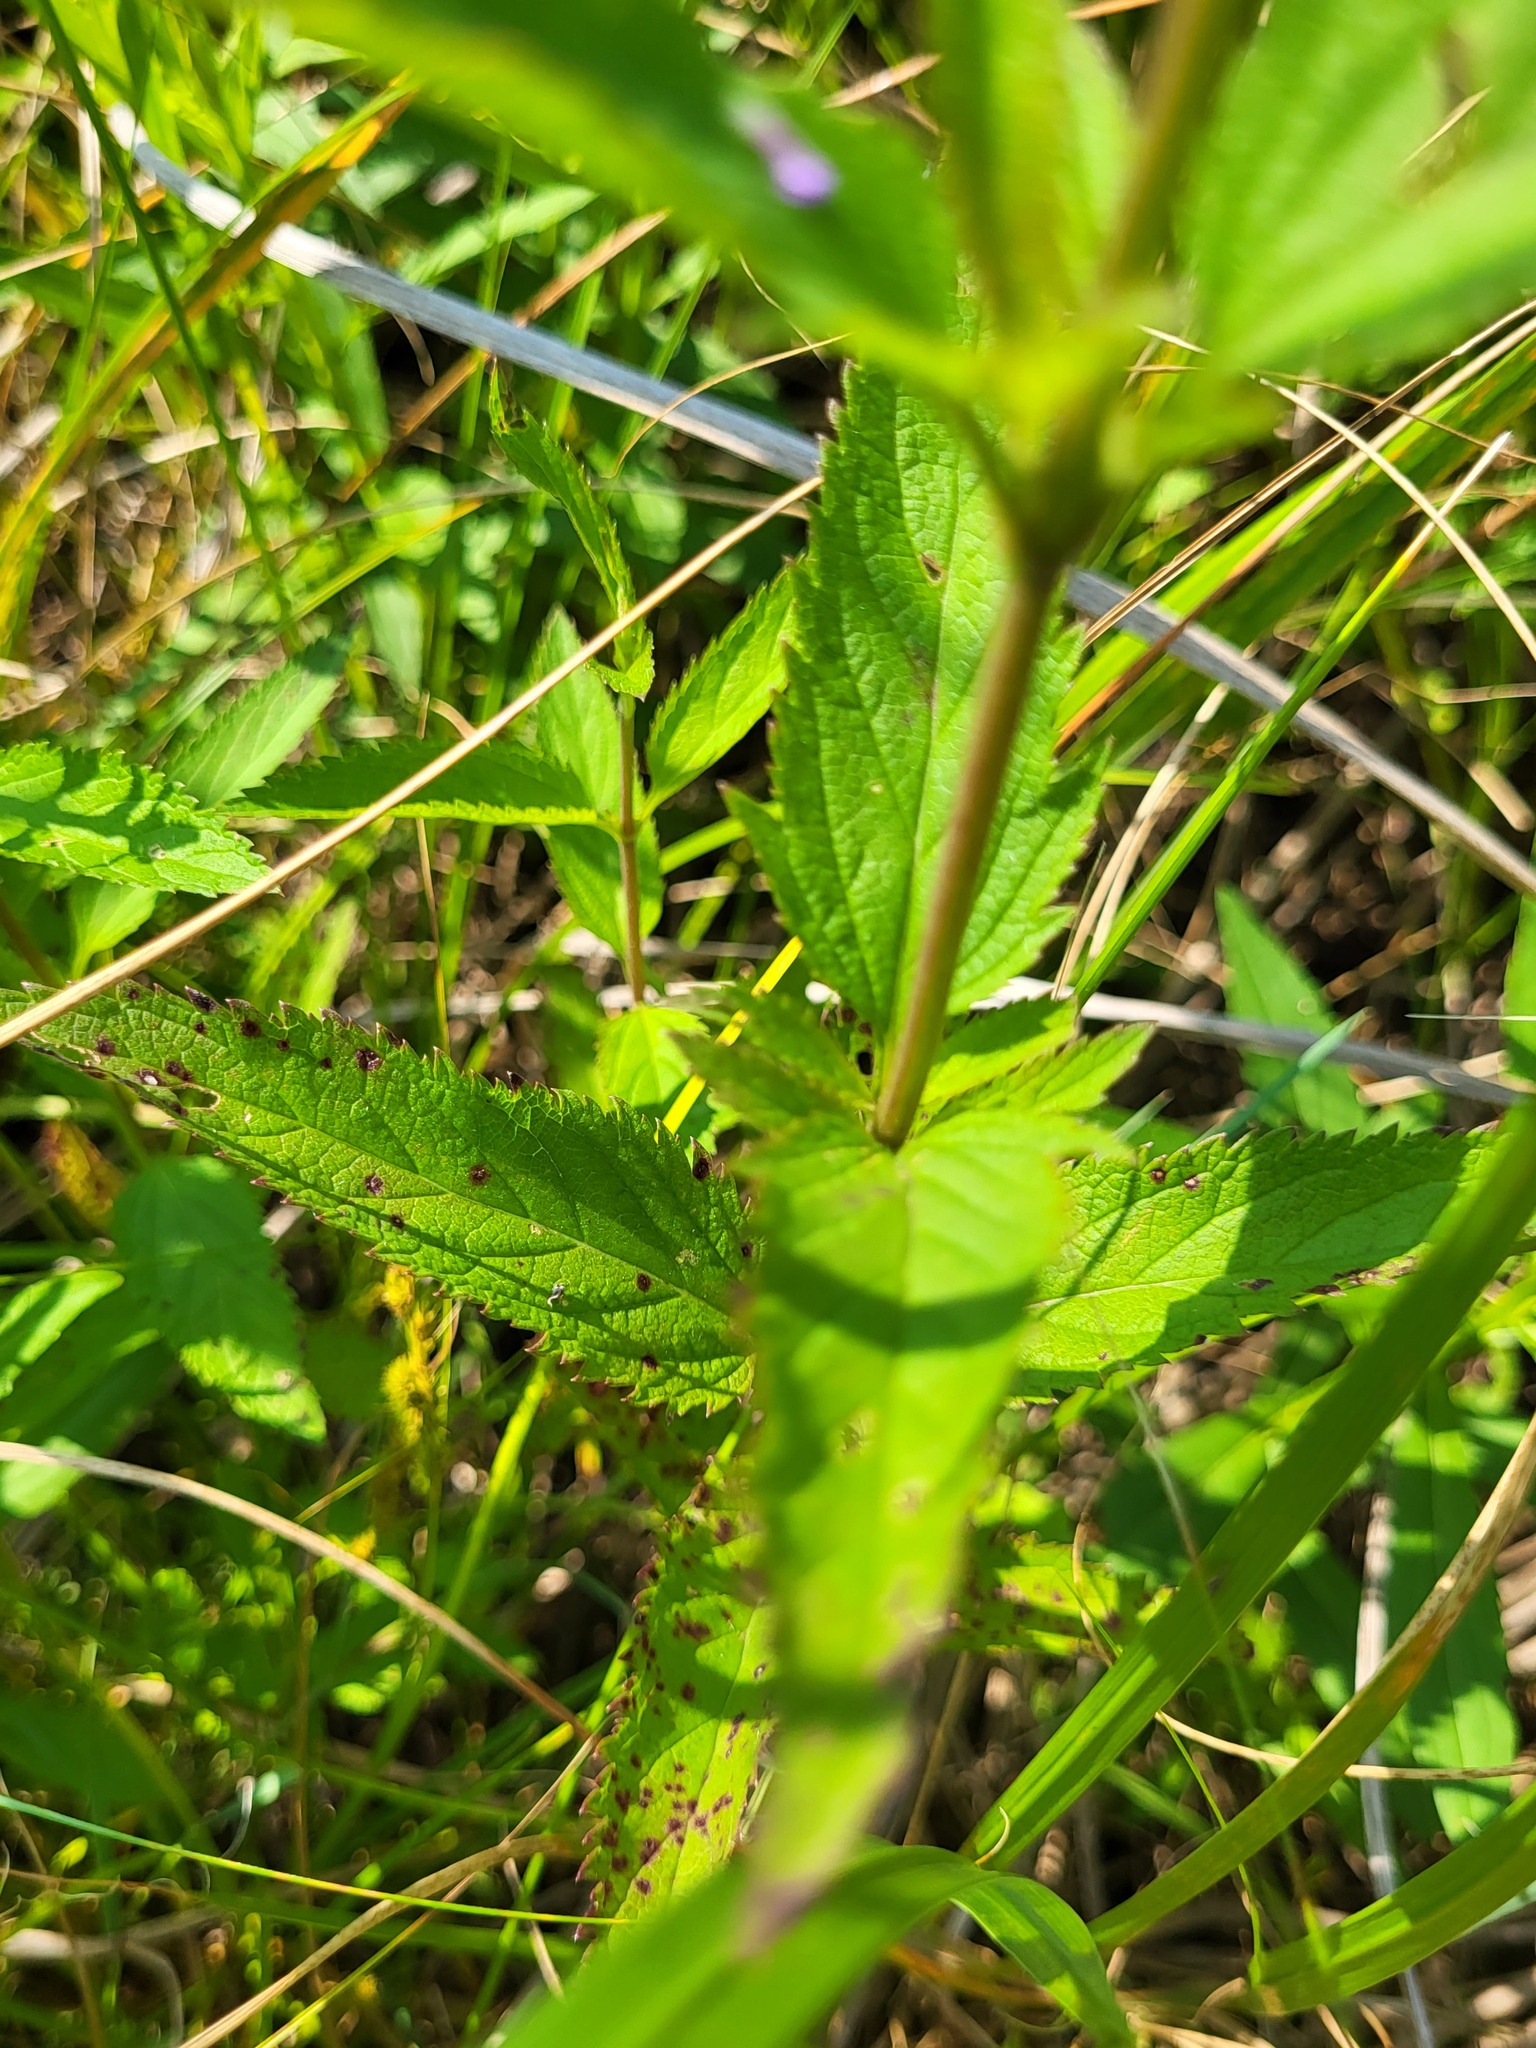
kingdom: Plantae
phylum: Tracheophyta
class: Magnoliopsida
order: Lamiales
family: Verbenaceae
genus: Verbena
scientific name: Verbena hastata
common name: American blue vervain
